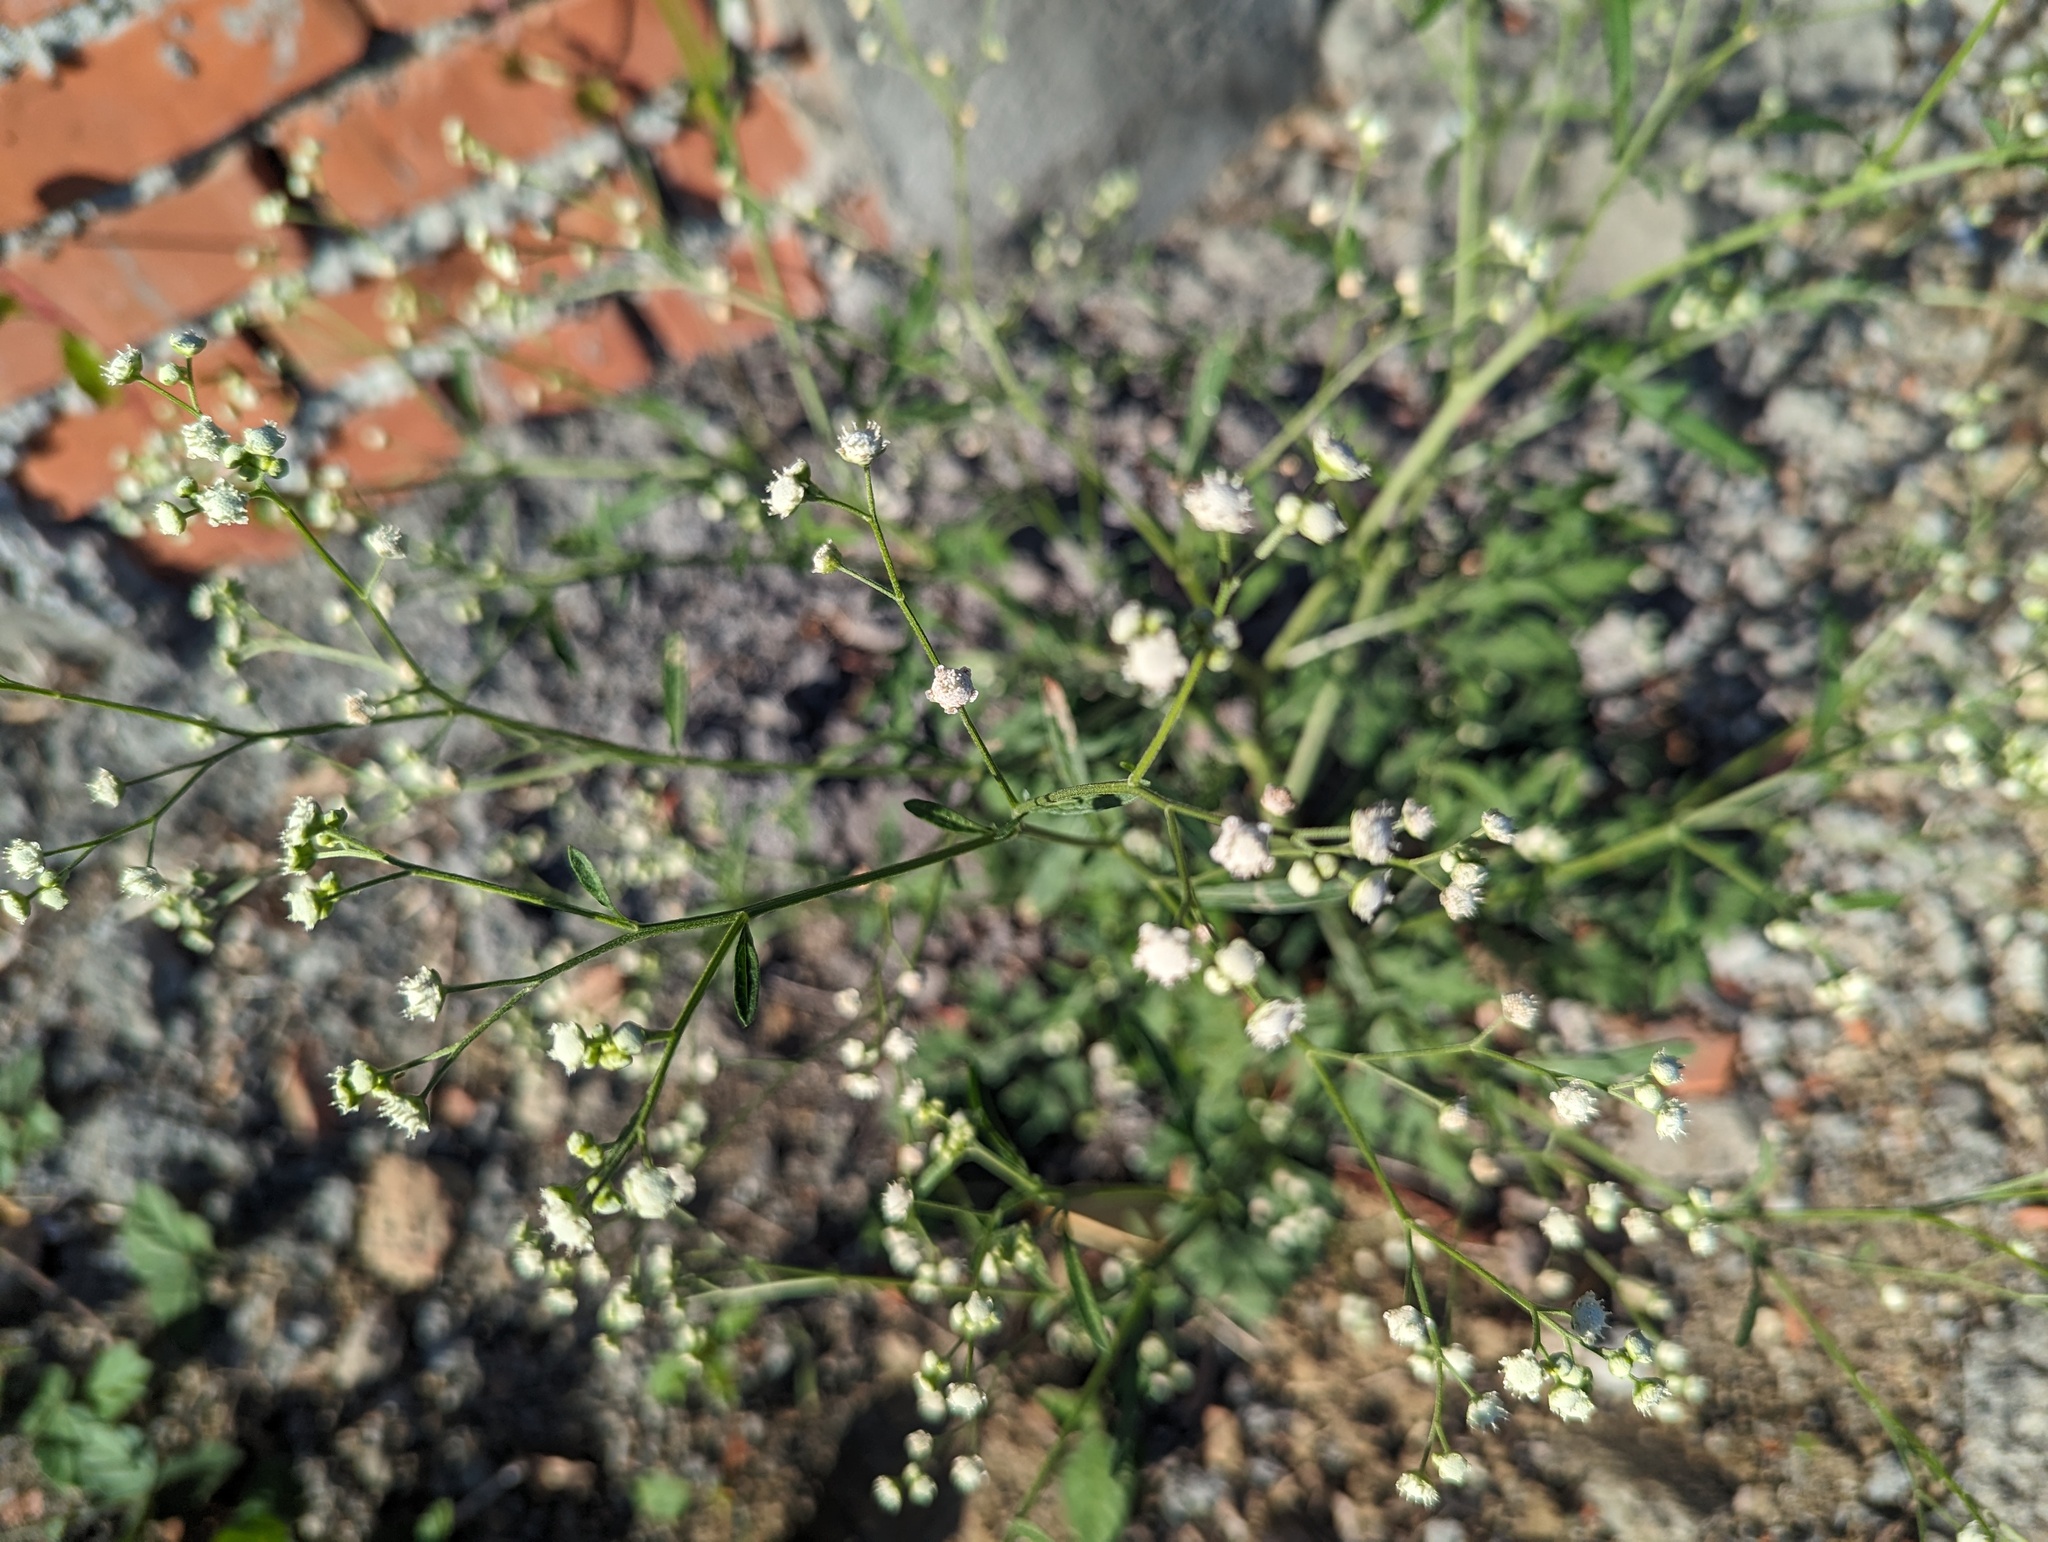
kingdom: Plantae
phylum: Tracheophyta
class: Magnoliopsida
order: Asterales
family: Asteraceae
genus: Parthenium
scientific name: Parthenium hysterophorus
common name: Santa maria feverfew
